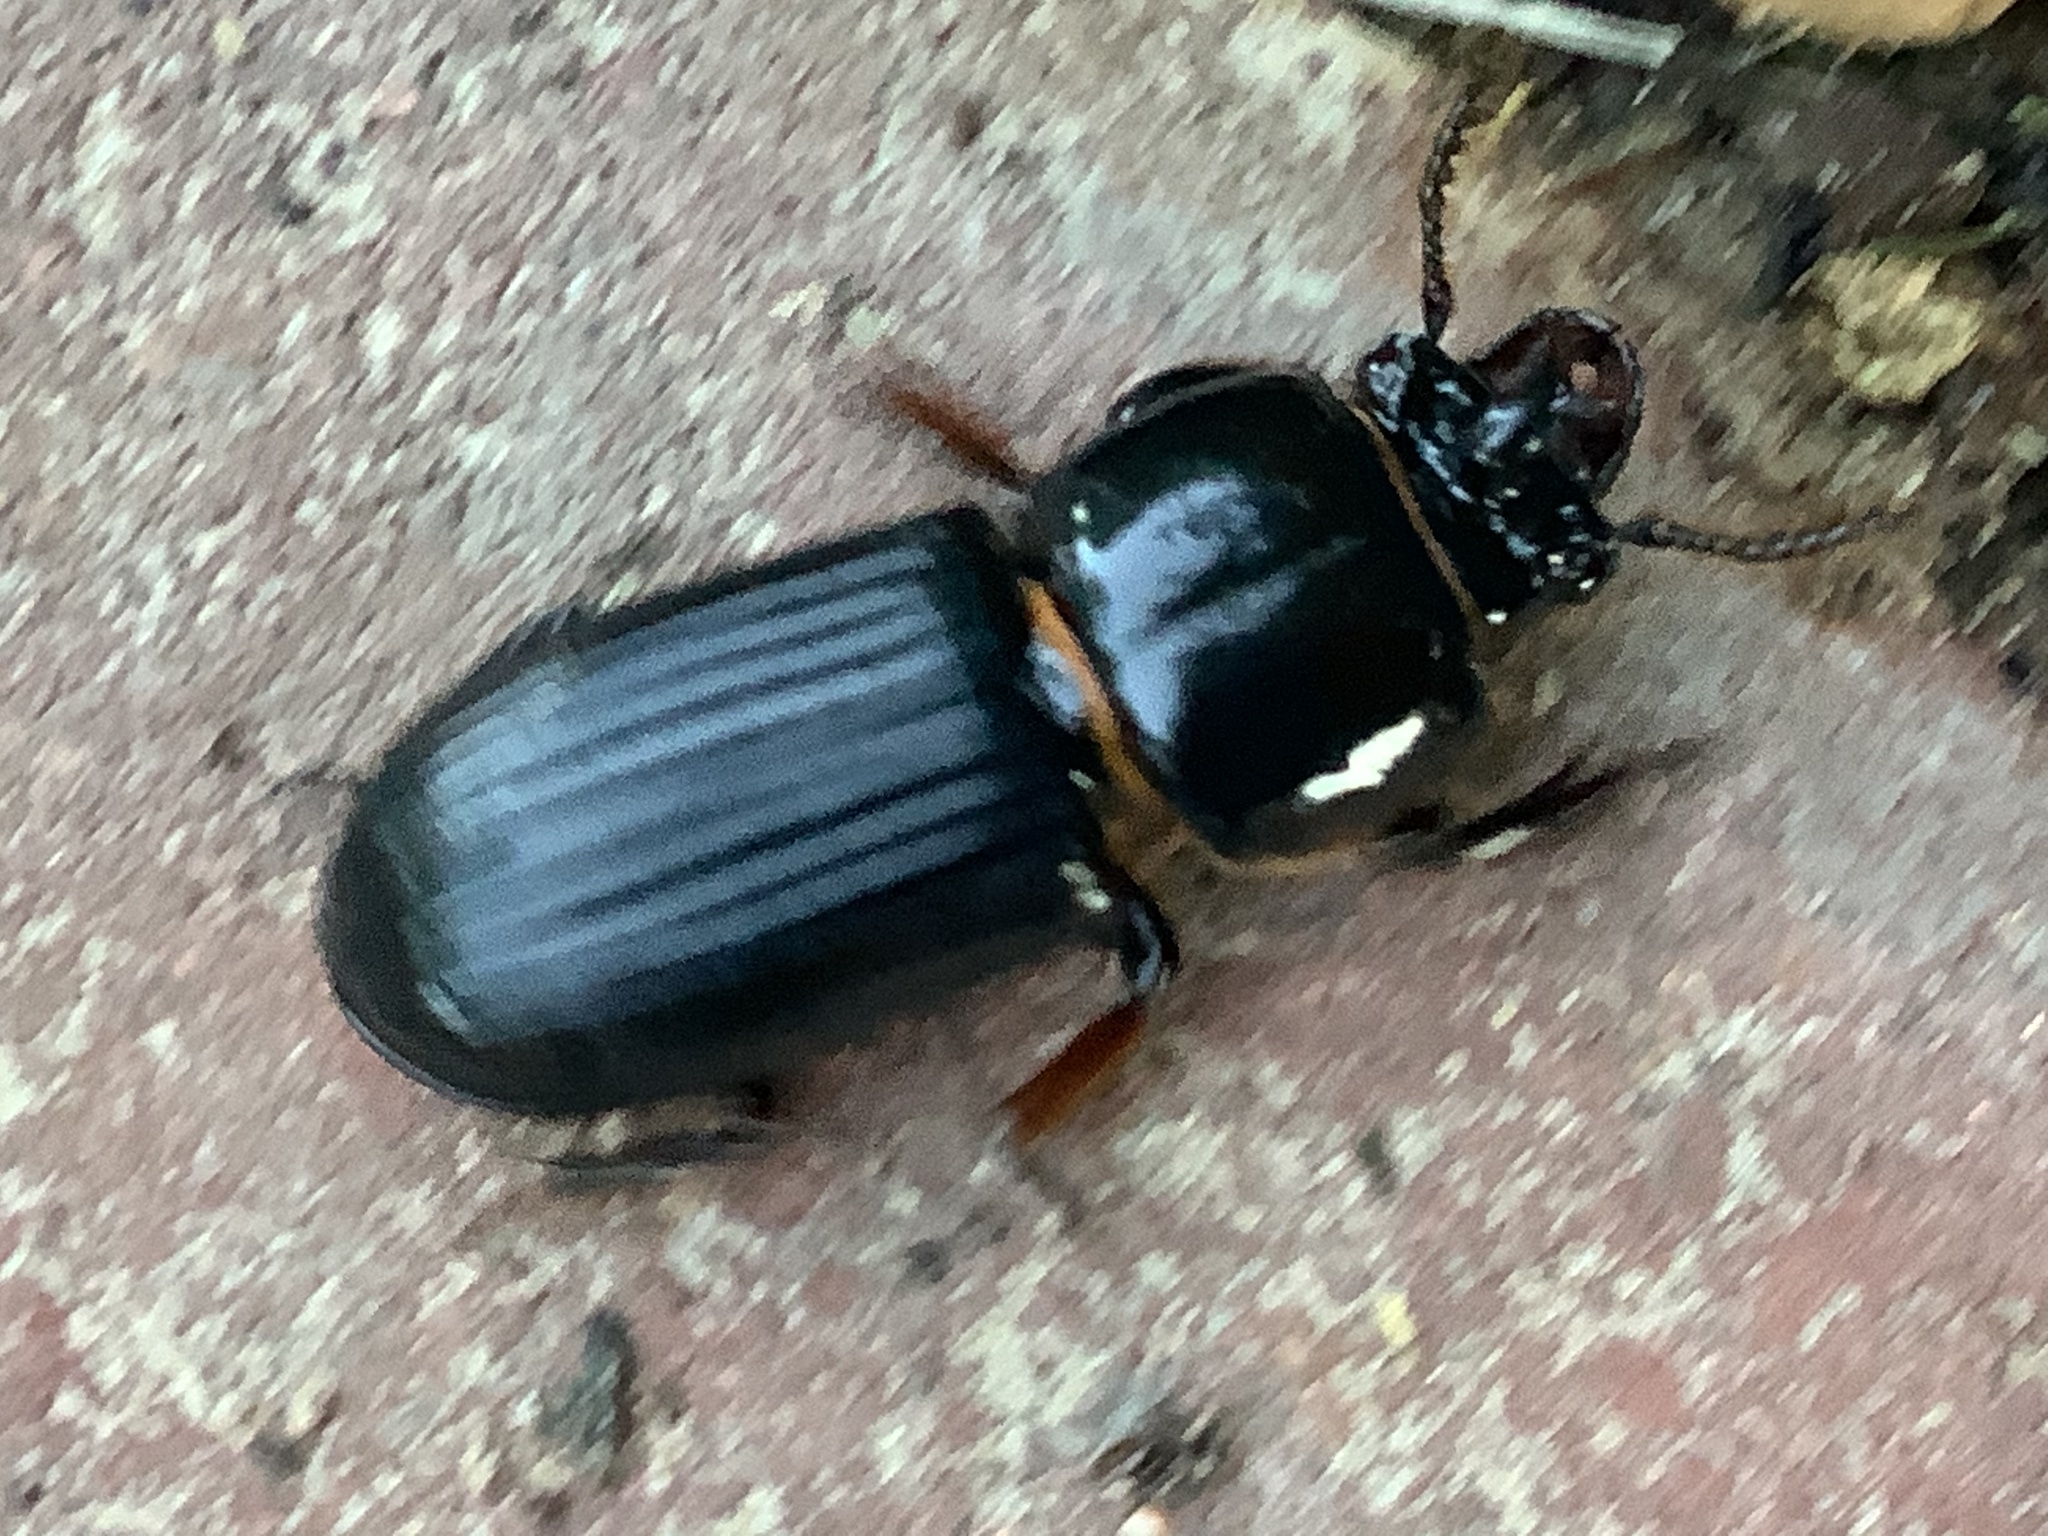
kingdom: Animalia
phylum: Arthropoda
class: Insecta
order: Coleoptera
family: Passalidae
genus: Odontotaenius
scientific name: Odontotaenius disjunctus
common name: Patent leather beetle
